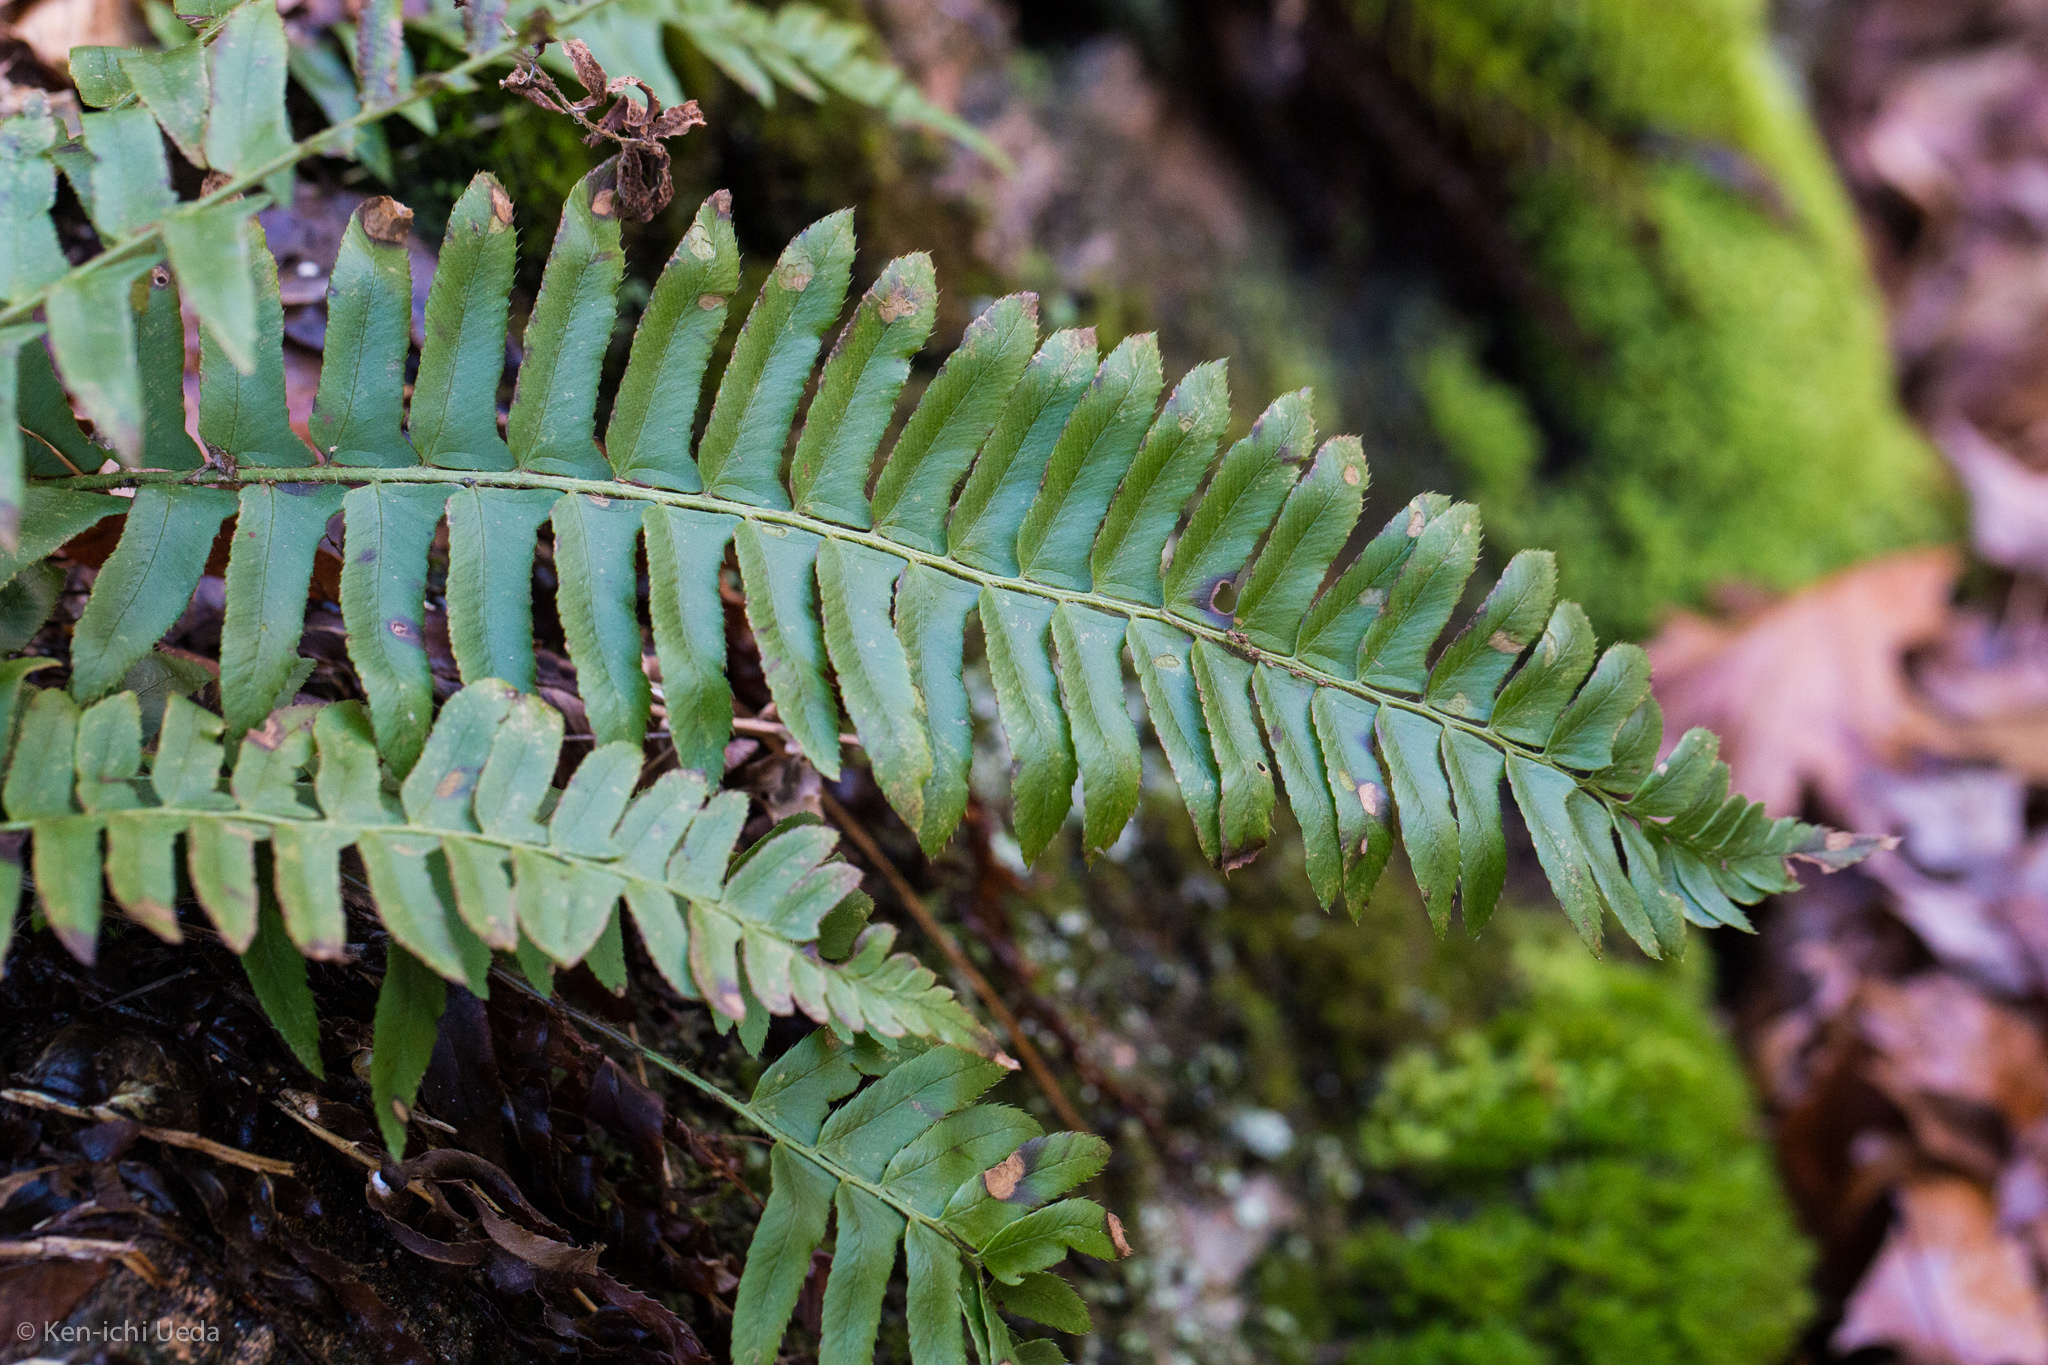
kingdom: Plantae
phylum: Tracheophyta
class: Polypodiopsida
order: Polypodiales
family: Dryopteridaceae
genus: Polystichum
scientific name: Polystichum acrostichoides
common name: Christmas fern
